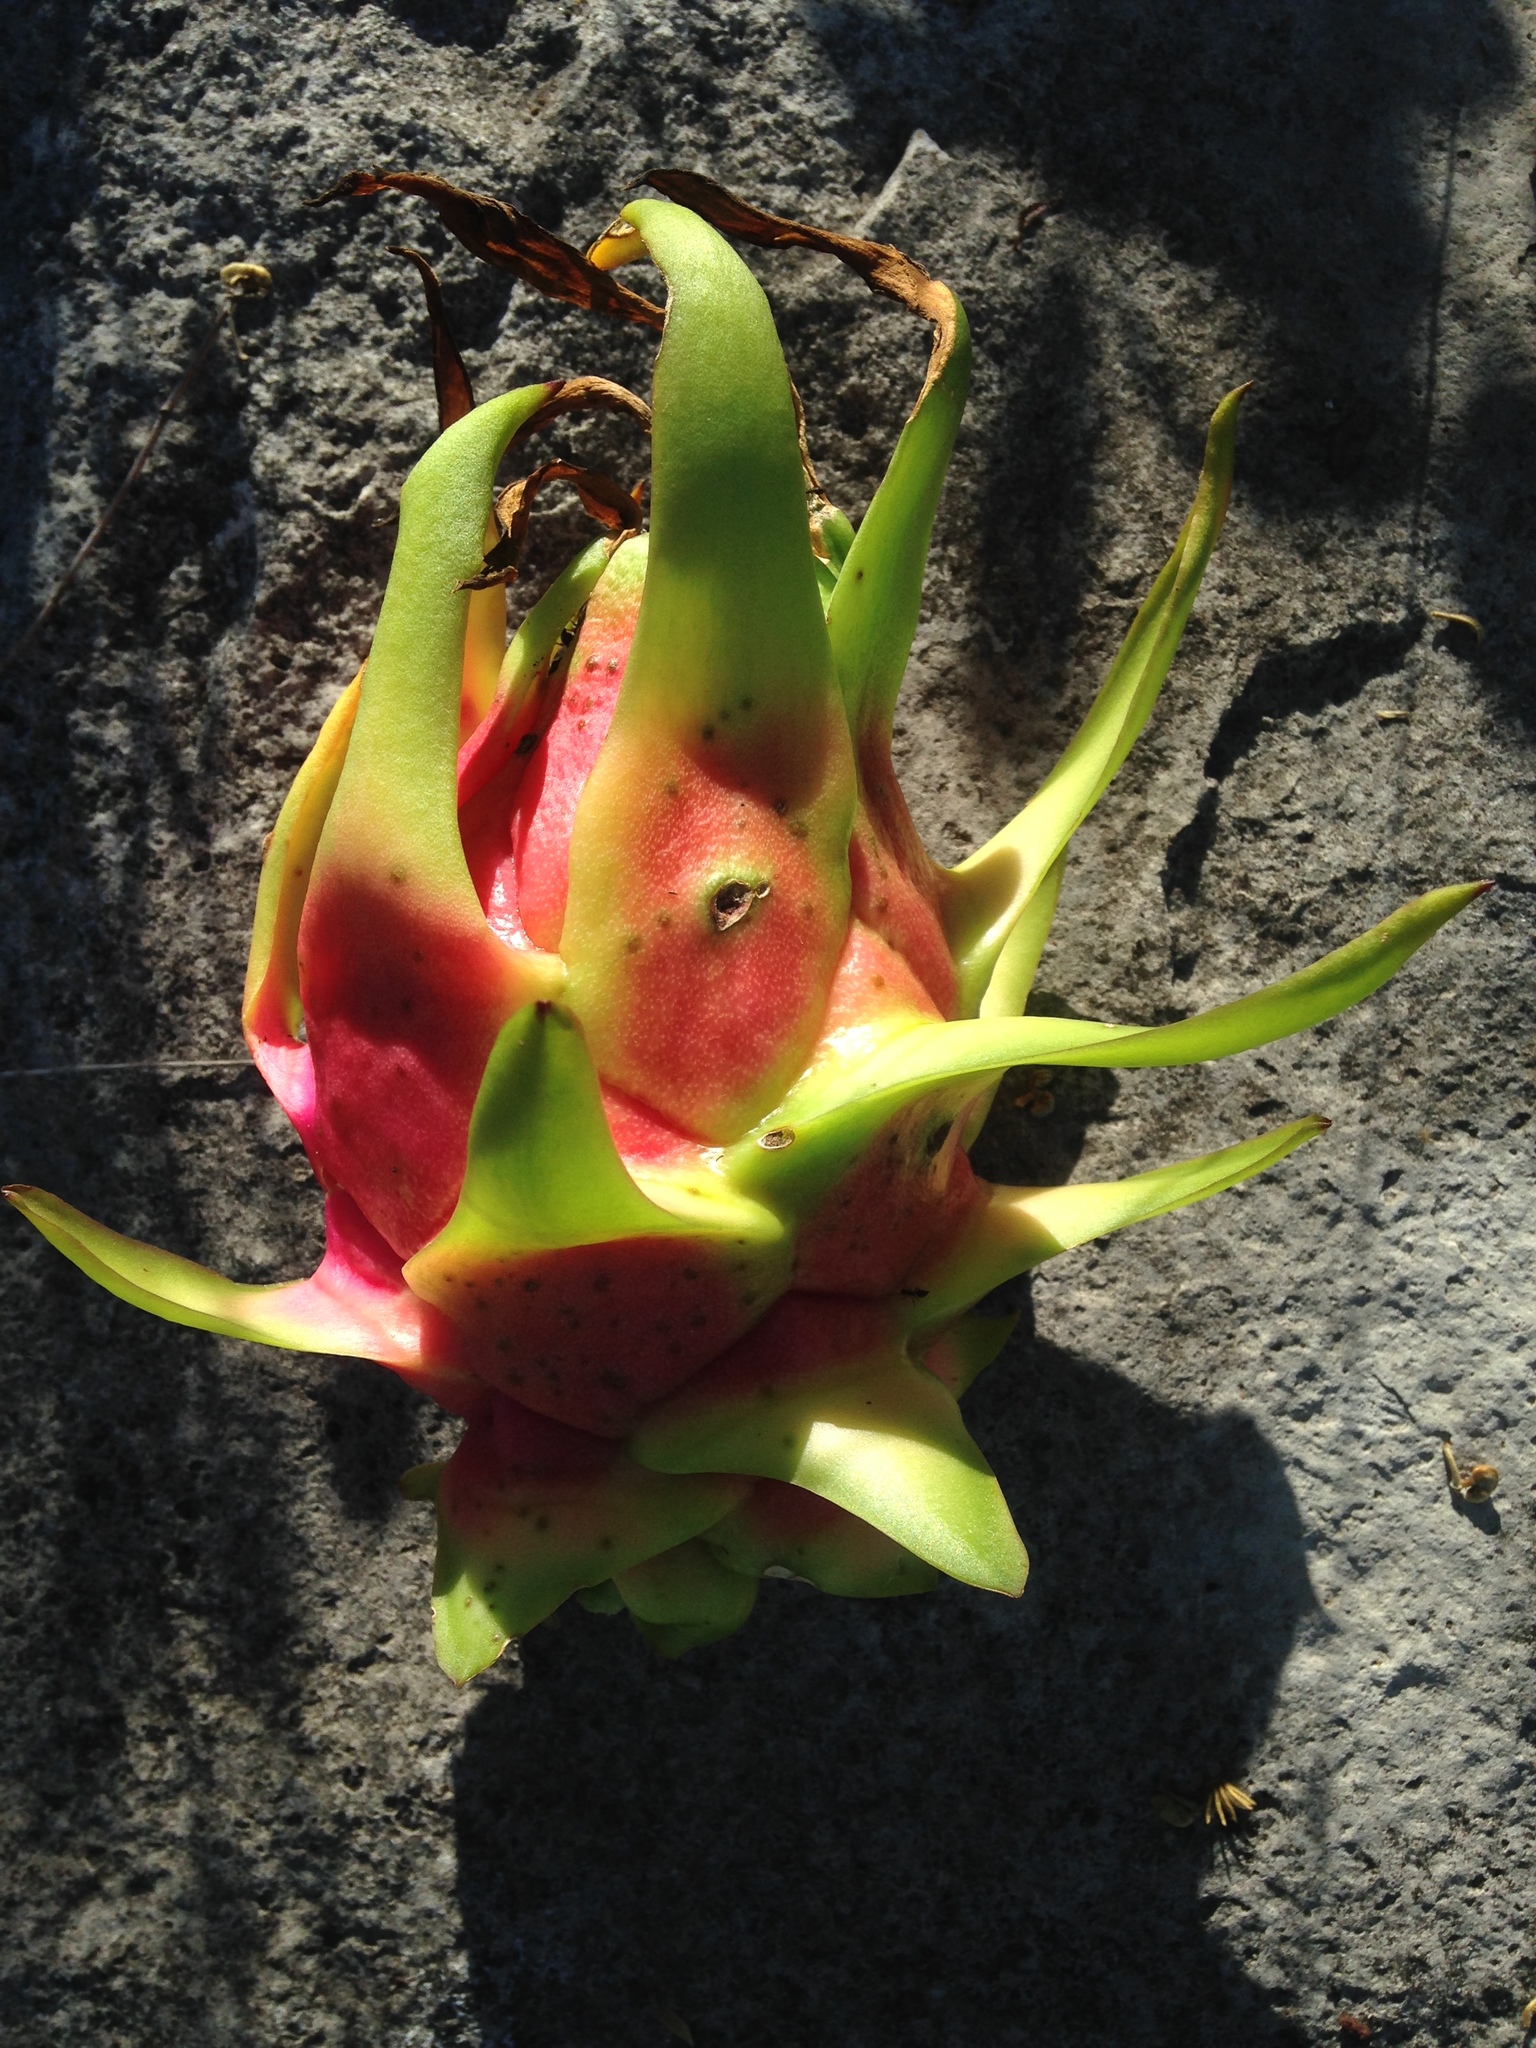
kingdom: Plantae
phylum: Tracheophyta
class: Magnoliopsida
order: Caryophyllales
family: Cactaceae
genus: Selenicereus
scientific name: Selenicereus undatus
